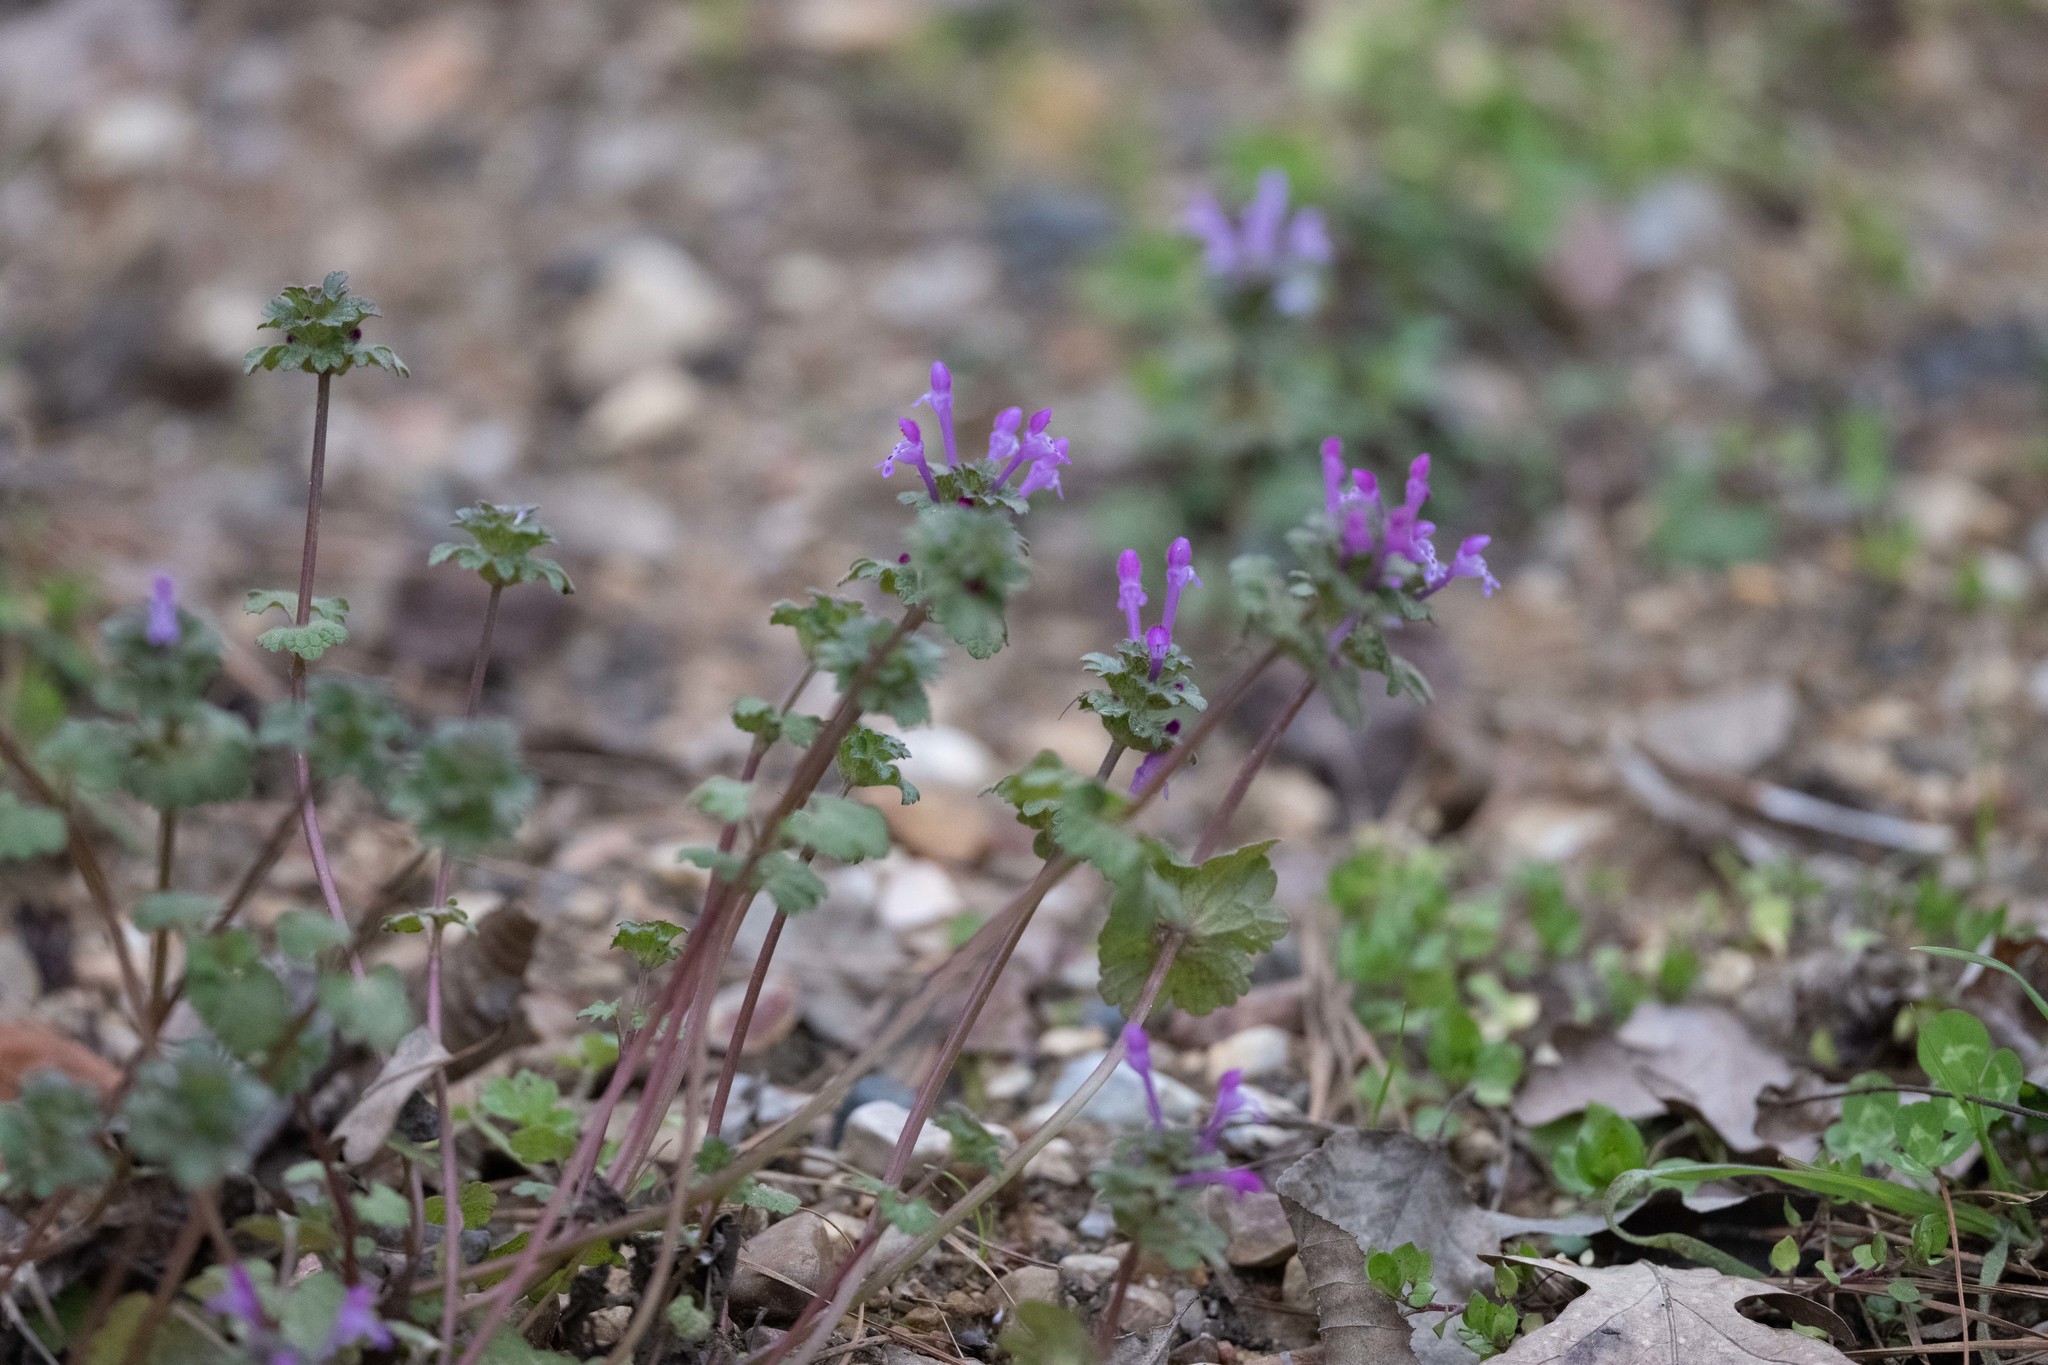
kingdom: Plantae
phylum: Tracheophyta
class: Magnoliopsida
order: Lamiales
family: Lamiaceae
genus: Lamium
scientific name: Lamium amplexicaule
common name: Henbit dead-nettle
